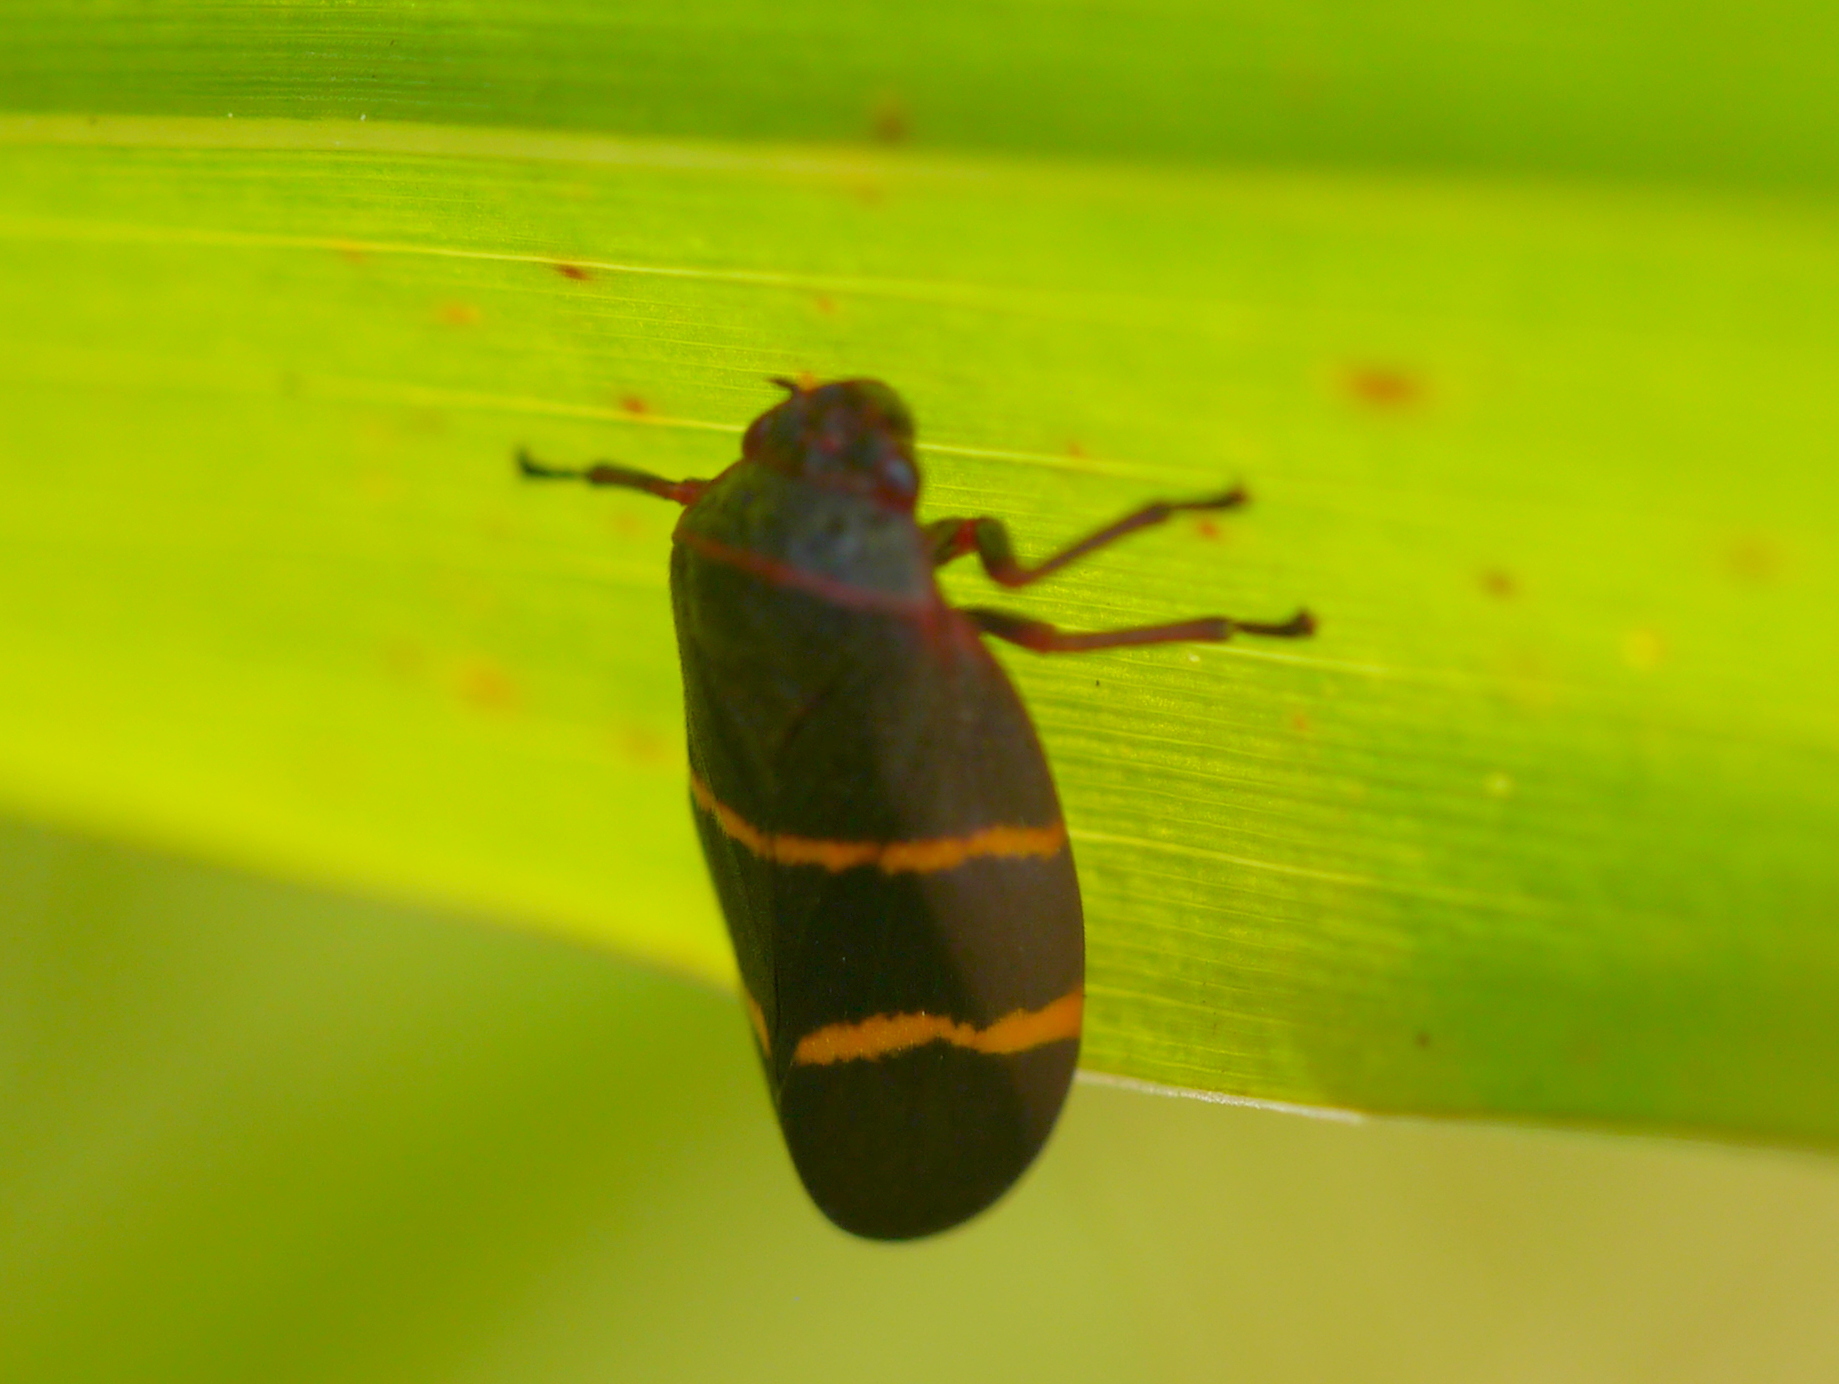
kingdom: Animalia
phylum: Arthropoda
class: Insecta
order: Hemiptera
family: Cercopidae
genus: Prosapia
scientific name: Prosapia bicincta
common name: Twolined spittlebug
